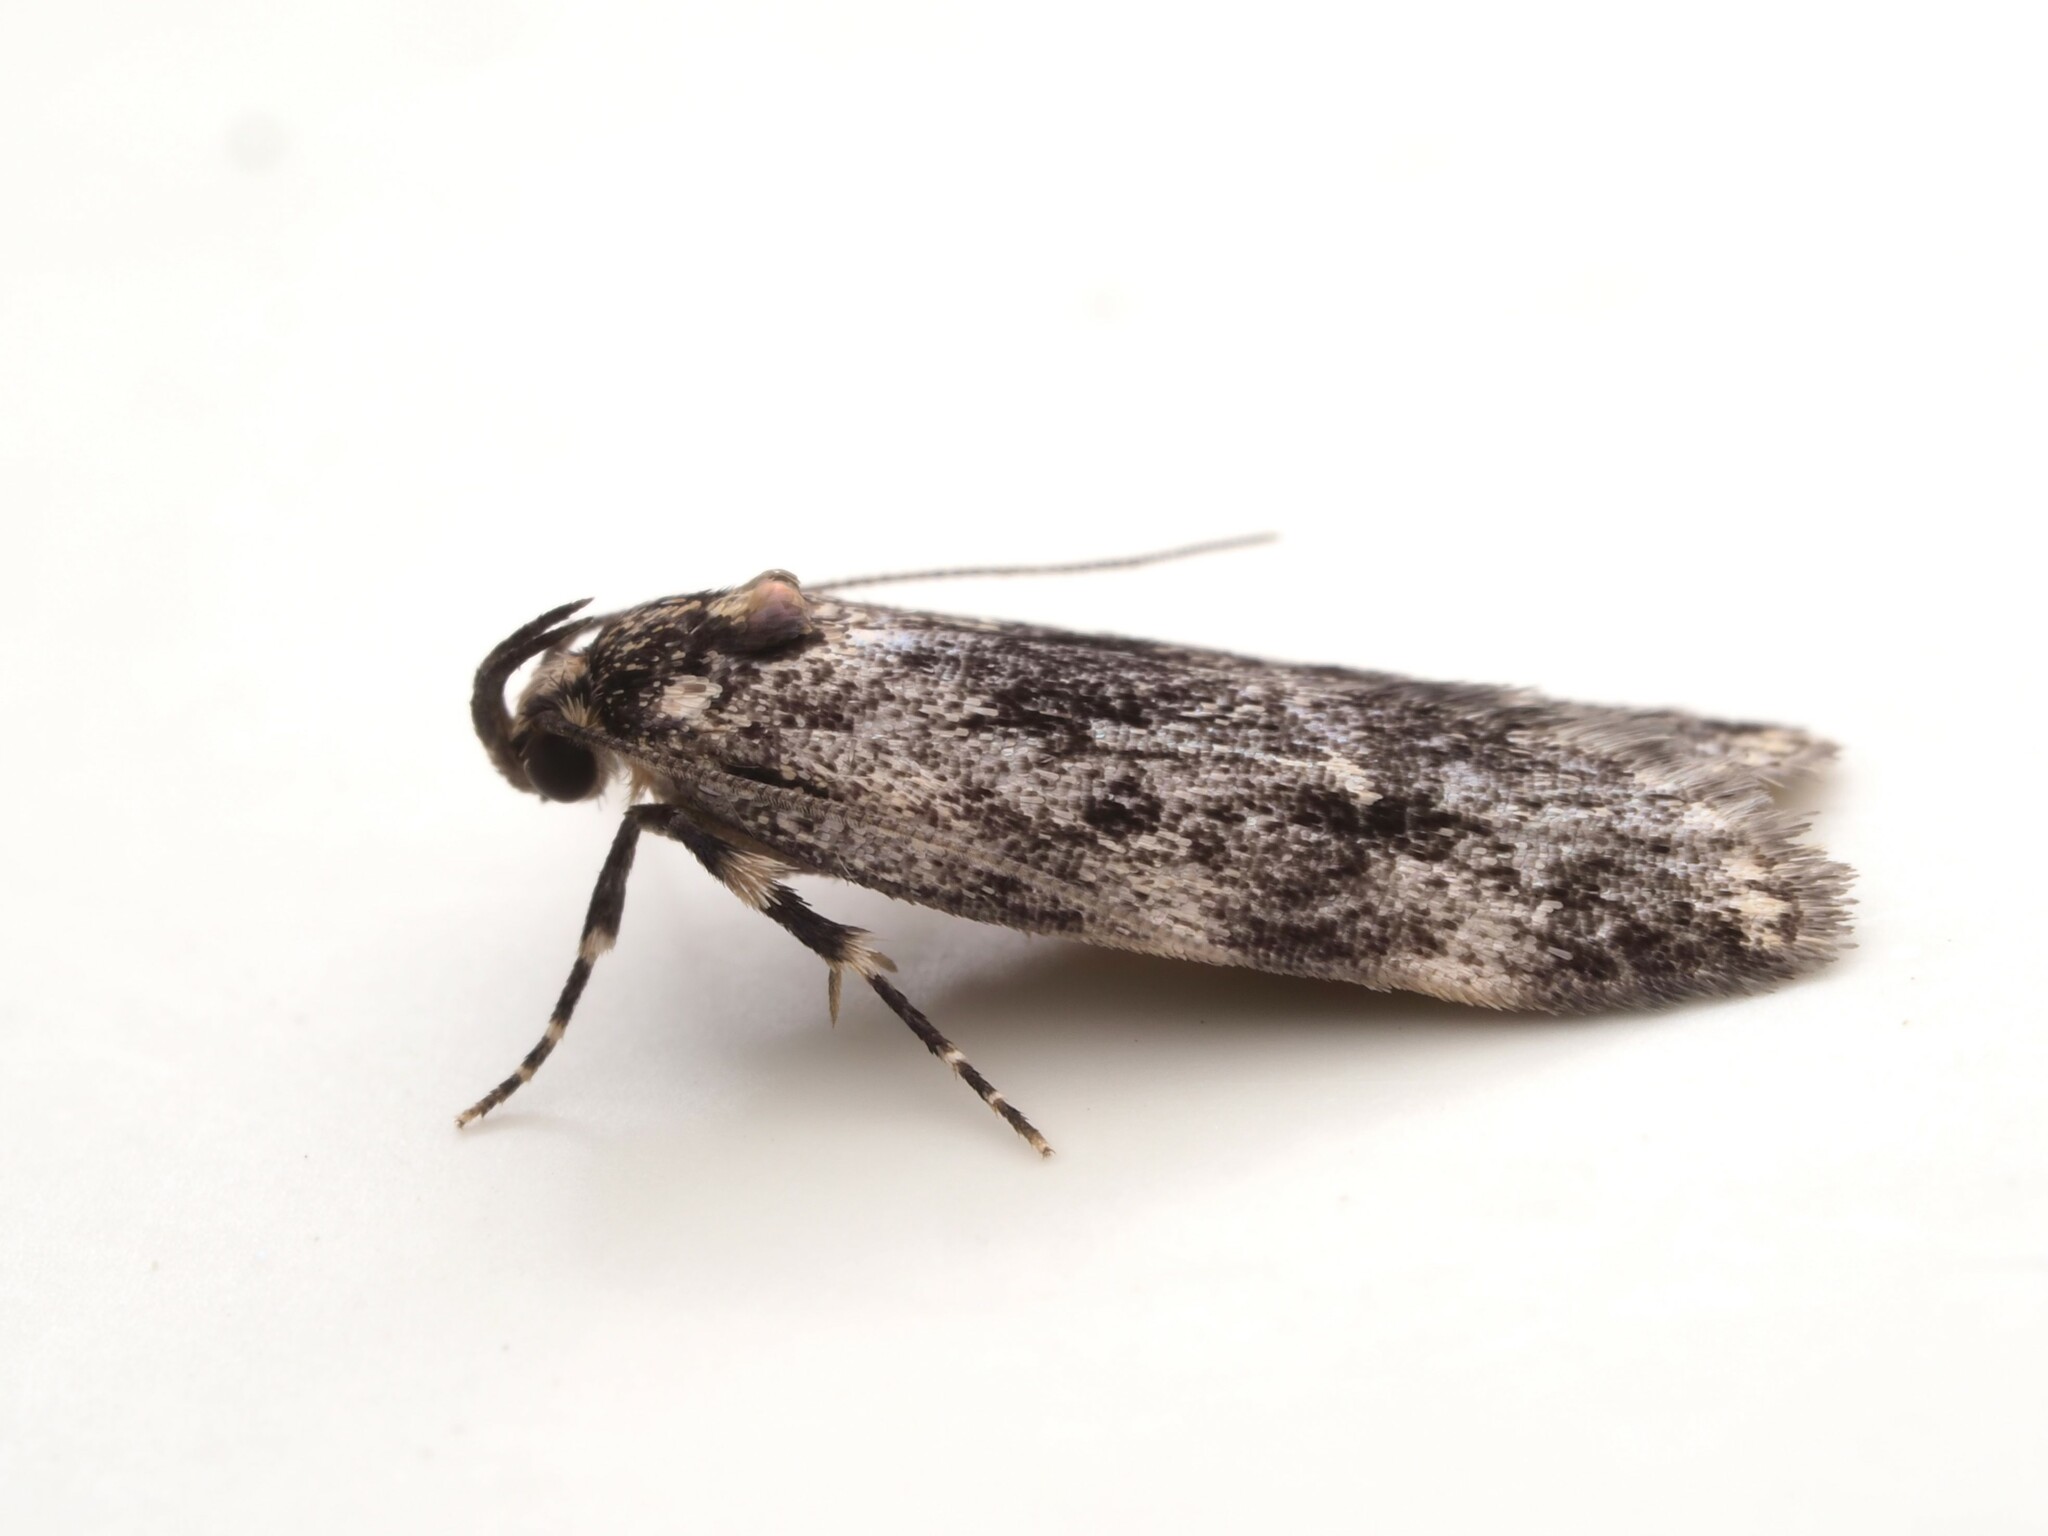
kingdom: Animalia
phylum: Arthropoda
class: Insecta
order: Lepidoptera
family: Oecophoridae
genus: Barea
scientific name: Barea codrella
